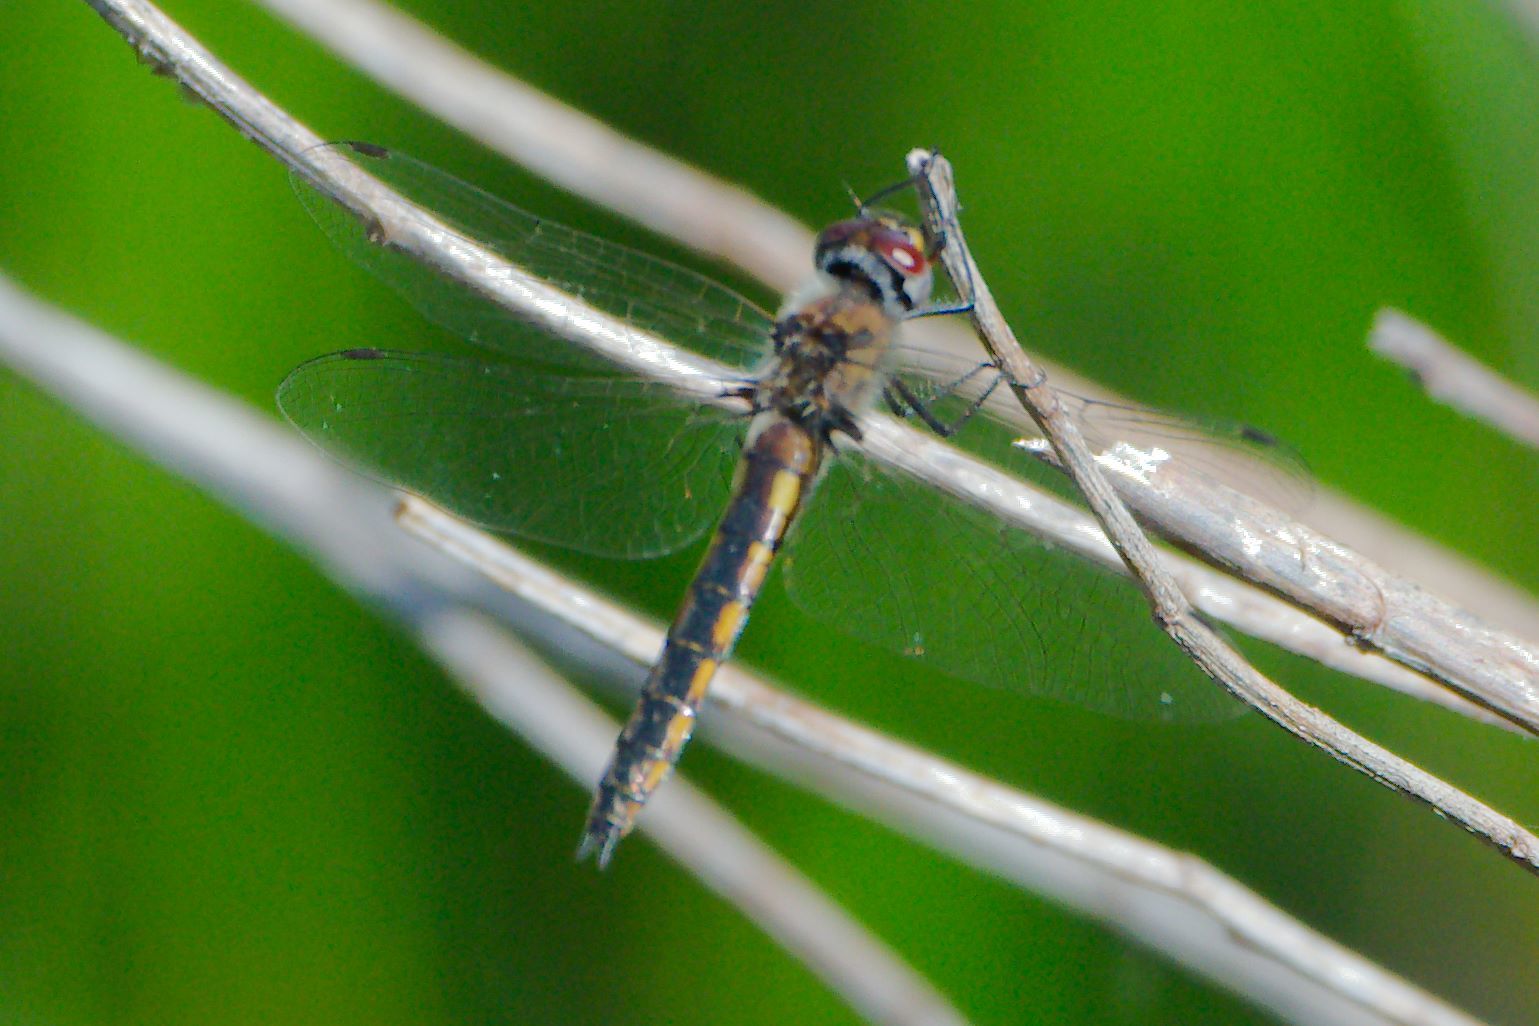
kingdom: Animalia
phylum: Arthropoda
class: Insecta
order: Odonata
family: Corduliidae
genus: Epitheca
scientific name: Epitheca cynosura
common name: Common baskettail
